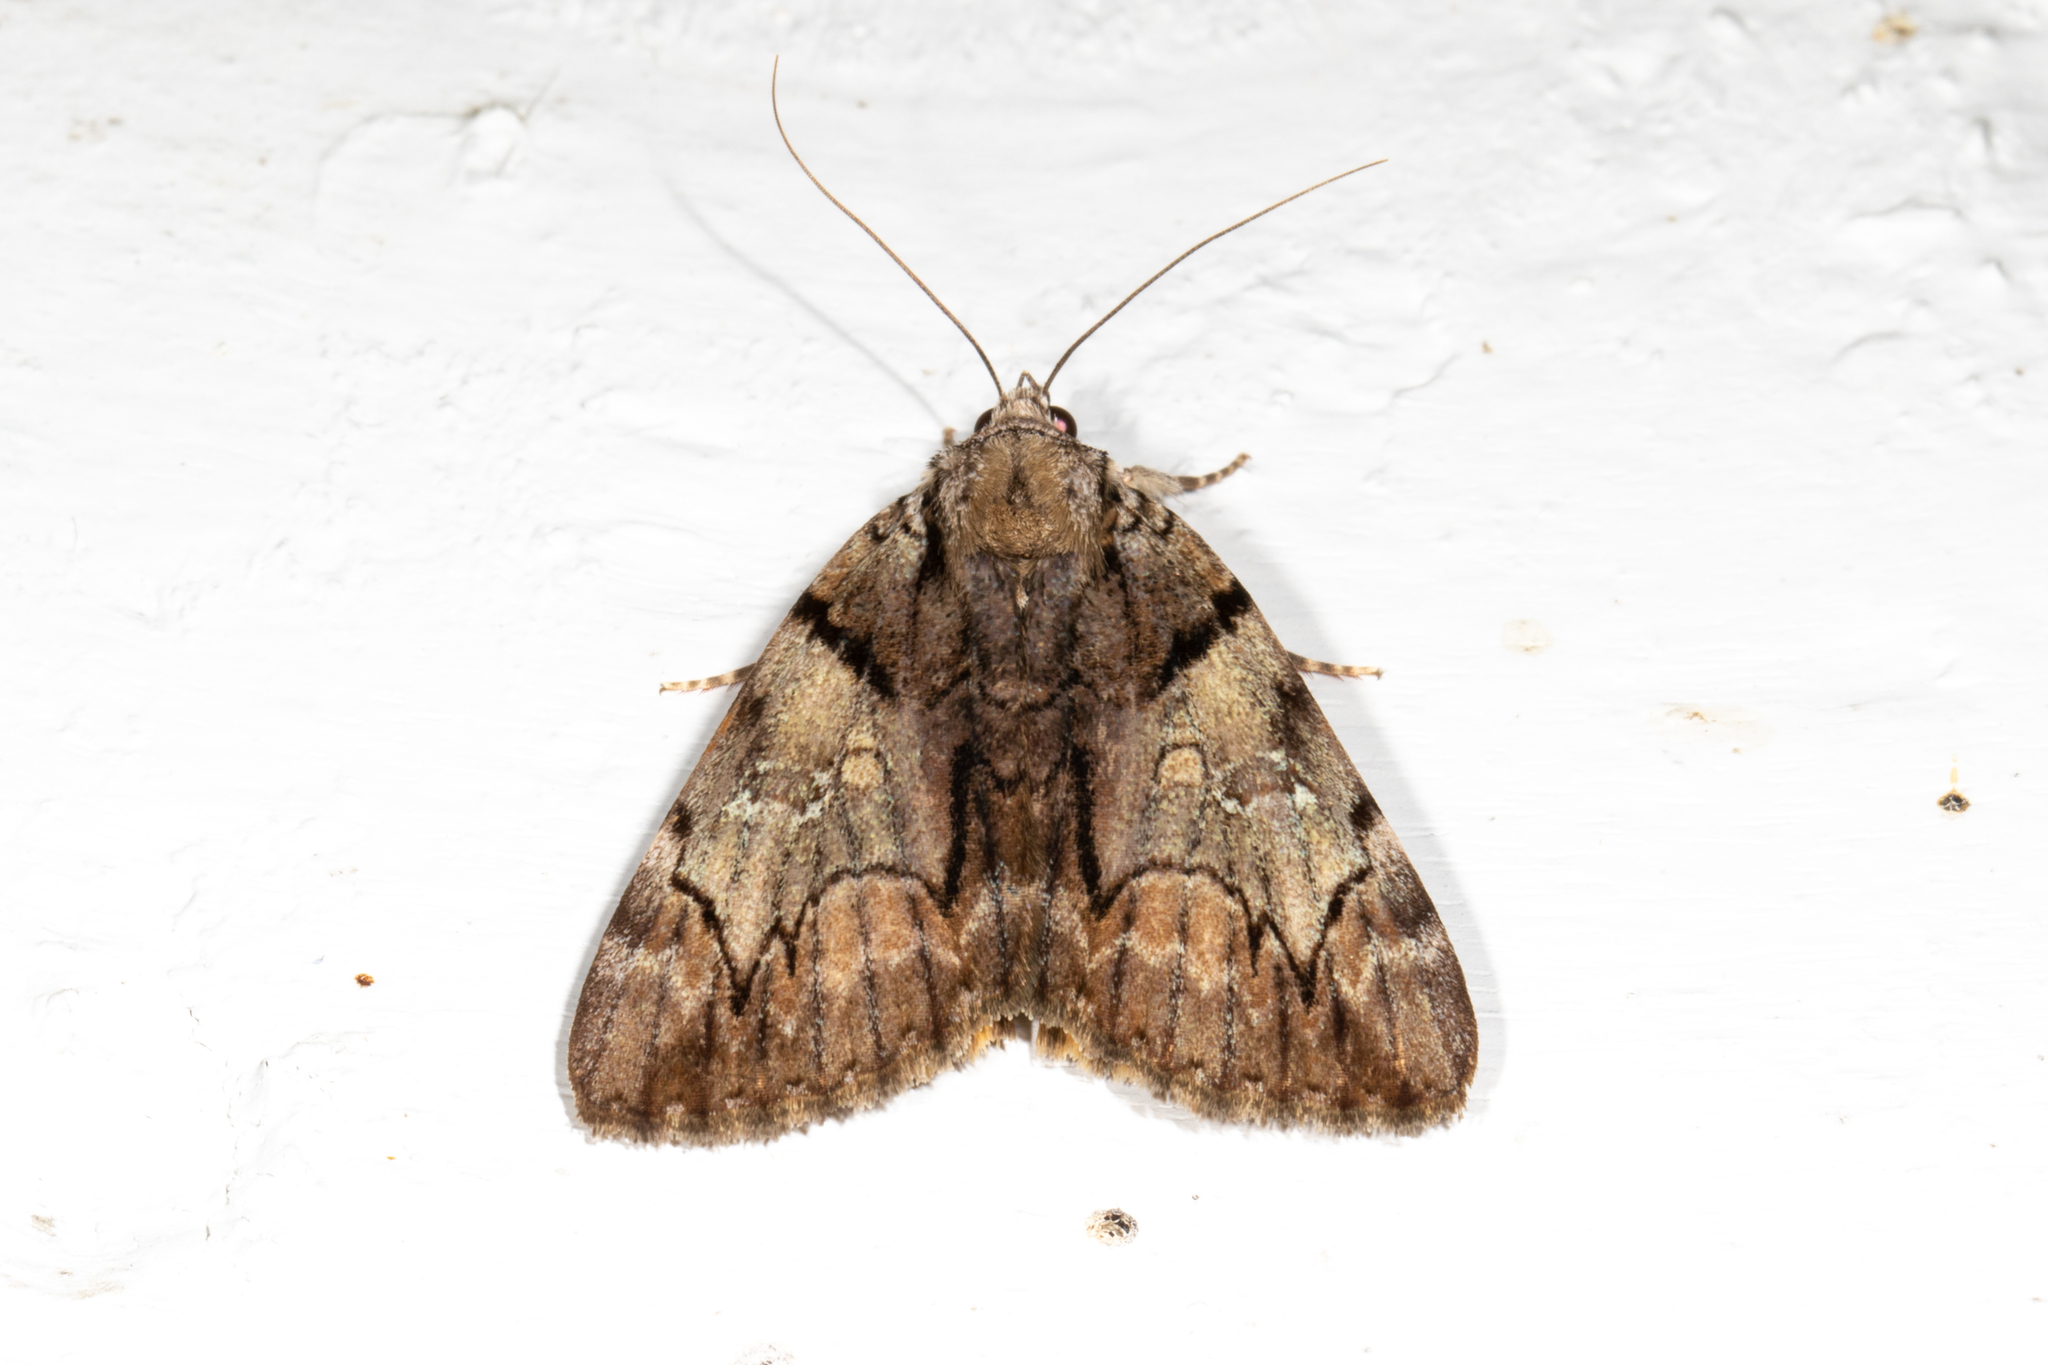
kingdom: Animalia
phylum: Arthropoda
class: Insecta
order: Lepidoptera
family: Erebidae
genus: Catocala
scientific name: Catocala crataegi
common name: Hawthorn underwing moth
